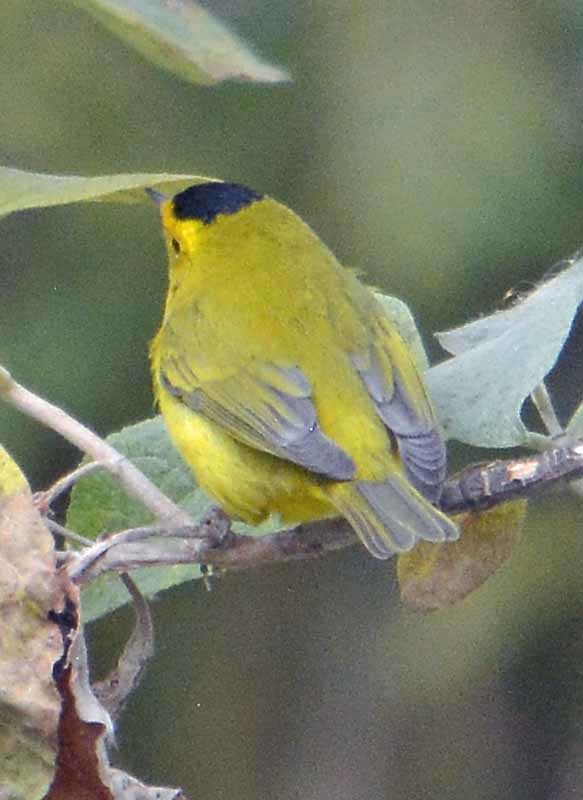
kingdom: Animalia
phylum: Chordata
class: Aves
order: Passeriformes
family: Parulidae
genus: Cardellina
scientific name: Cardellina pusilla
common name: Wilson's warbler
